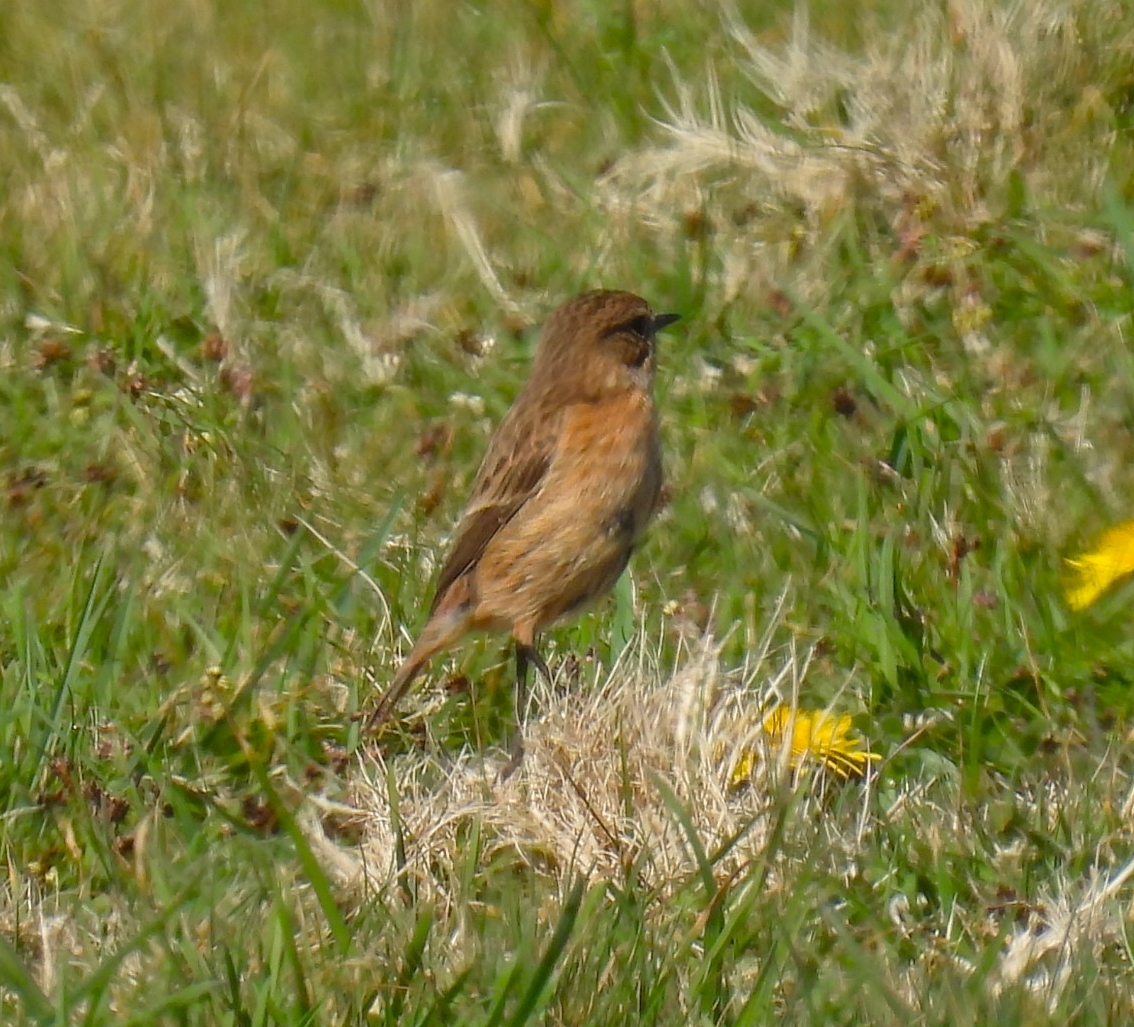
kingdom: Animalia
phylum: Chordata
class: Aves
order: Passeriformes
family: Muscicapidae
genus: Saxicola
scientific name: Saxicola rubicola
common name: European stonechat
